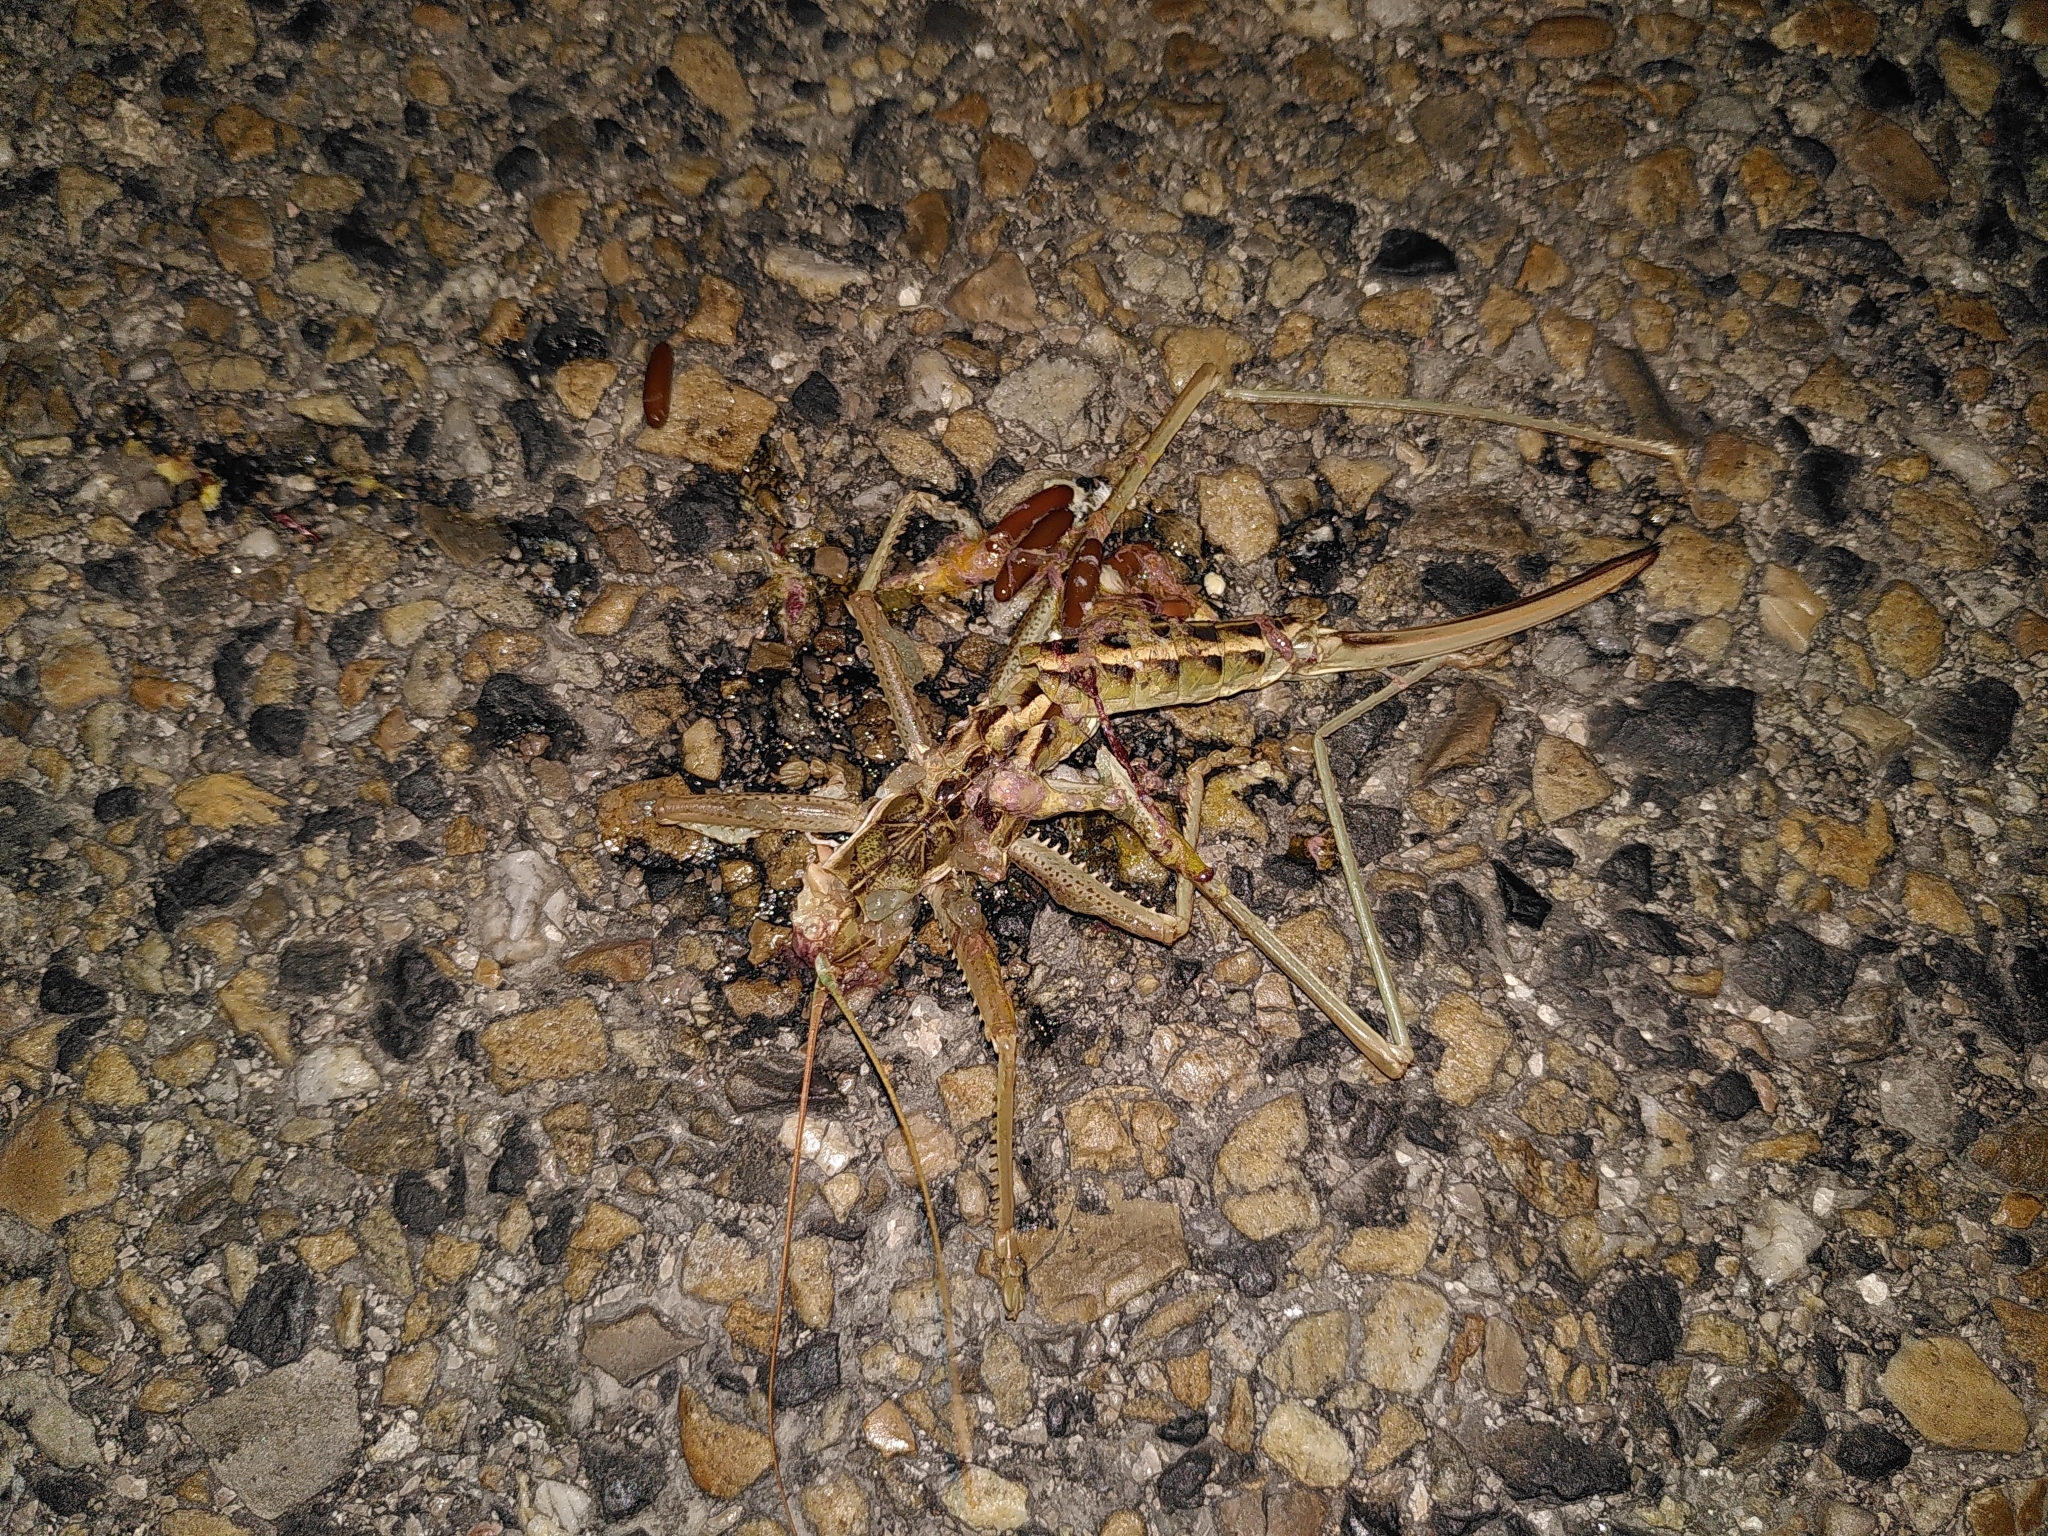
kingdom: Animalia
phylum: Arthropoda
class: Insecta
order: Orthoptera
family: Tettigoniidae
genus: Saga
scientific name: Saga pedo
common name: Common predatory bush-cricket
